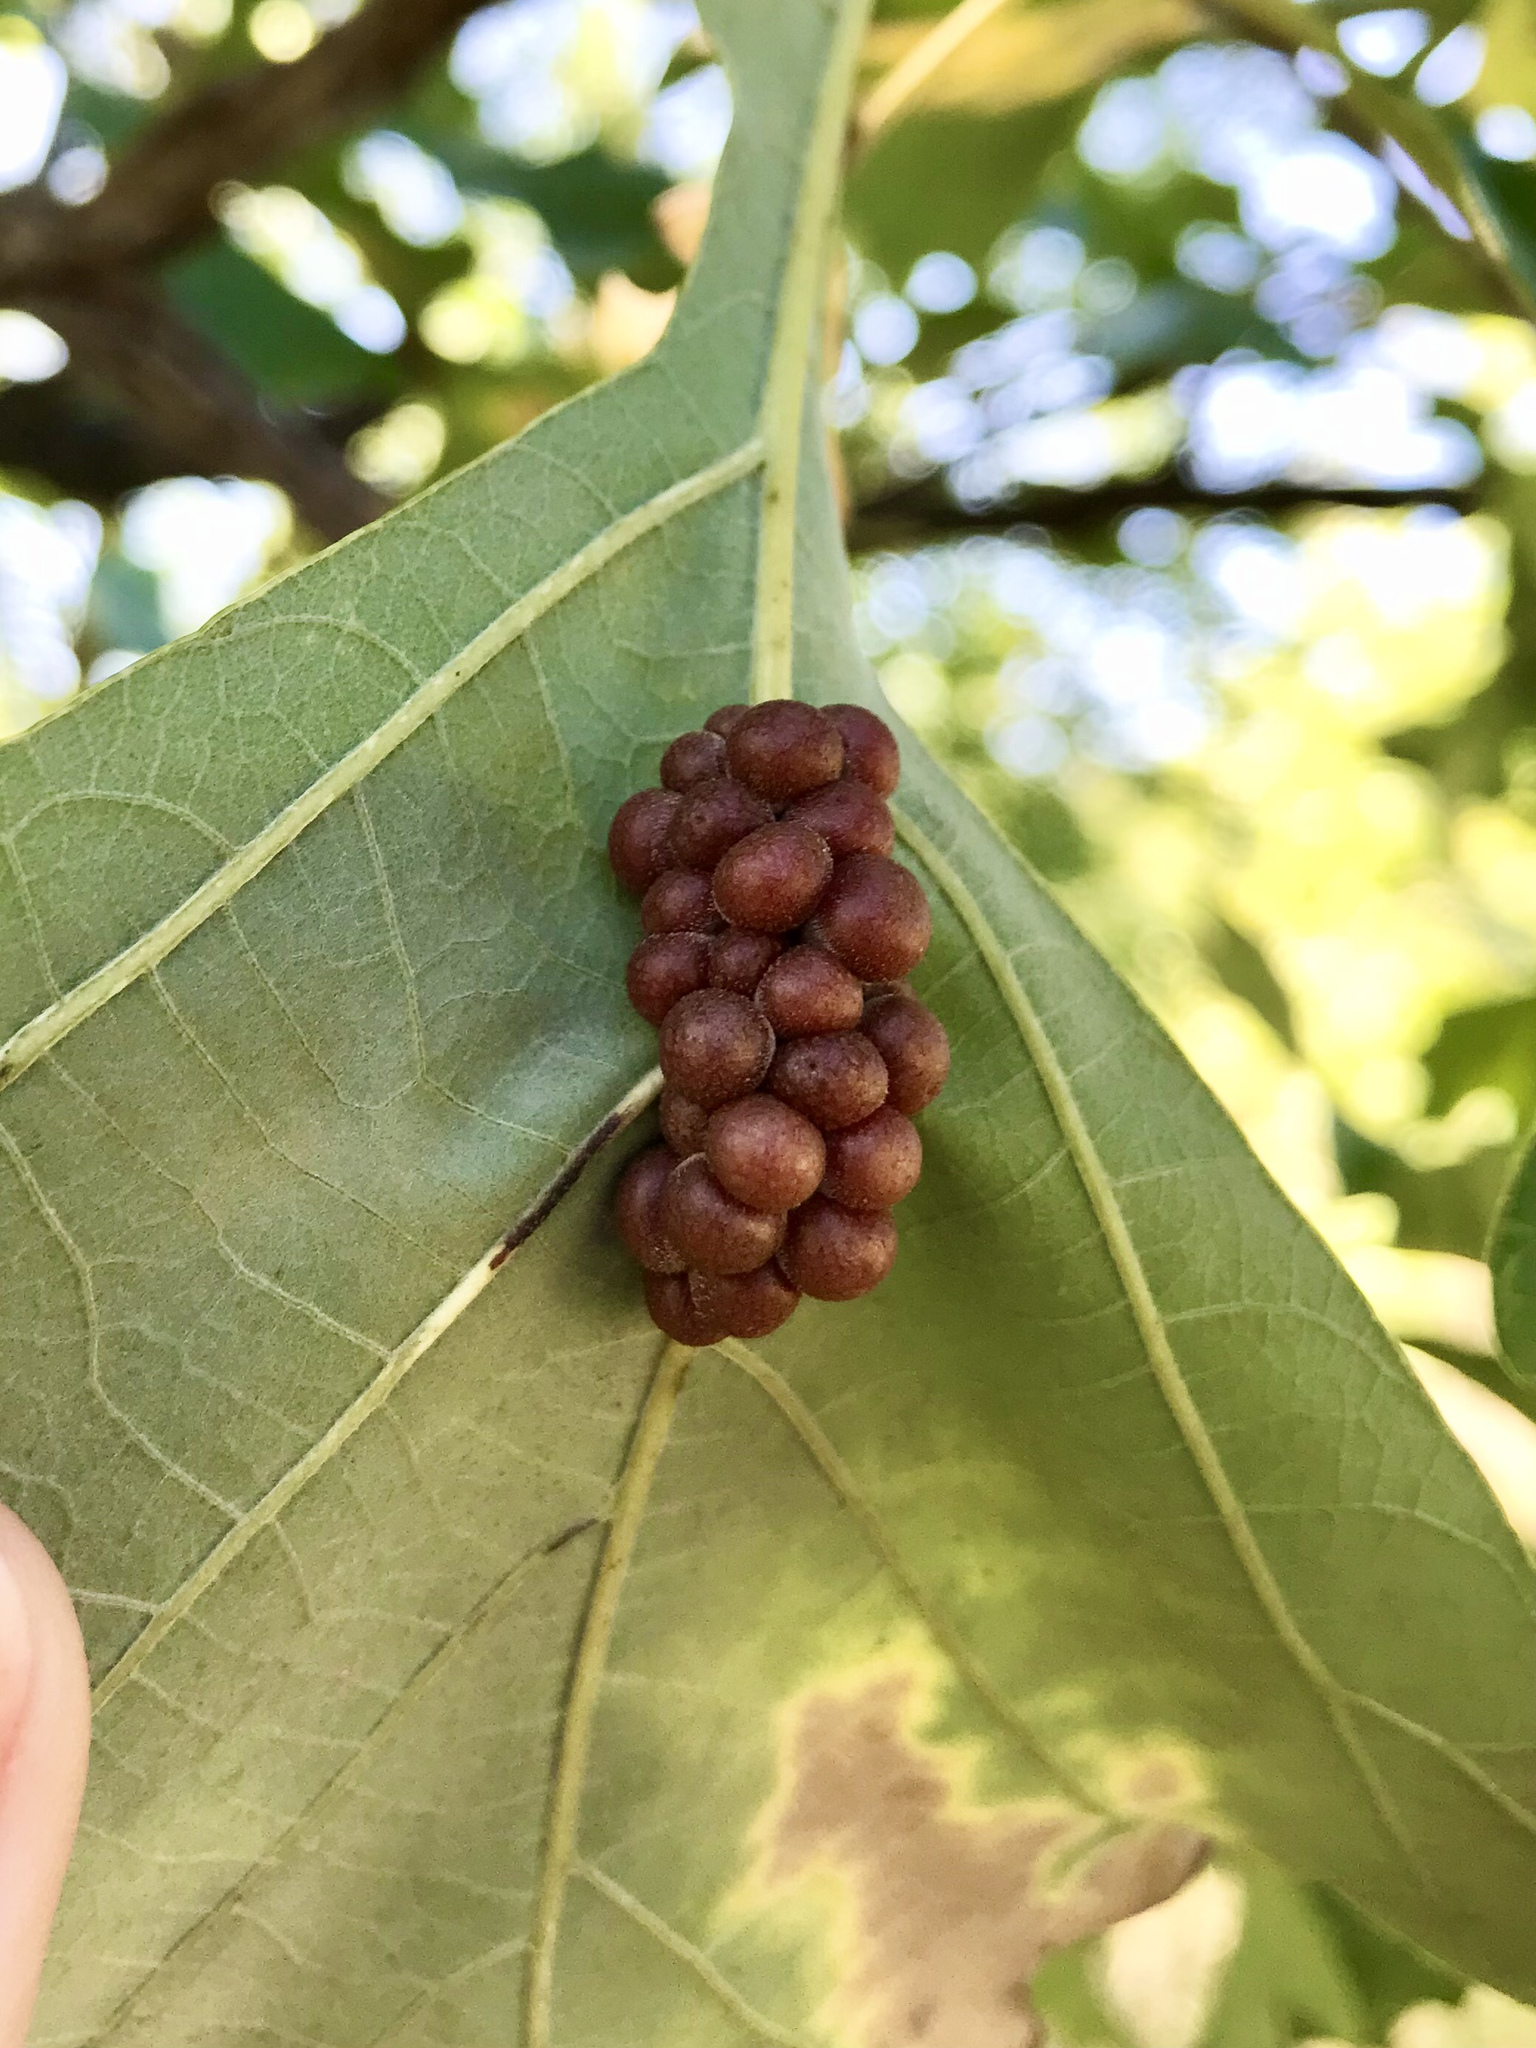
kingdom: Animalia
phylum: Arthropoda
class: Insecta
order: Hymenoptera
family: Cynipidae
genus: Andricus
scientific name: Andricus
